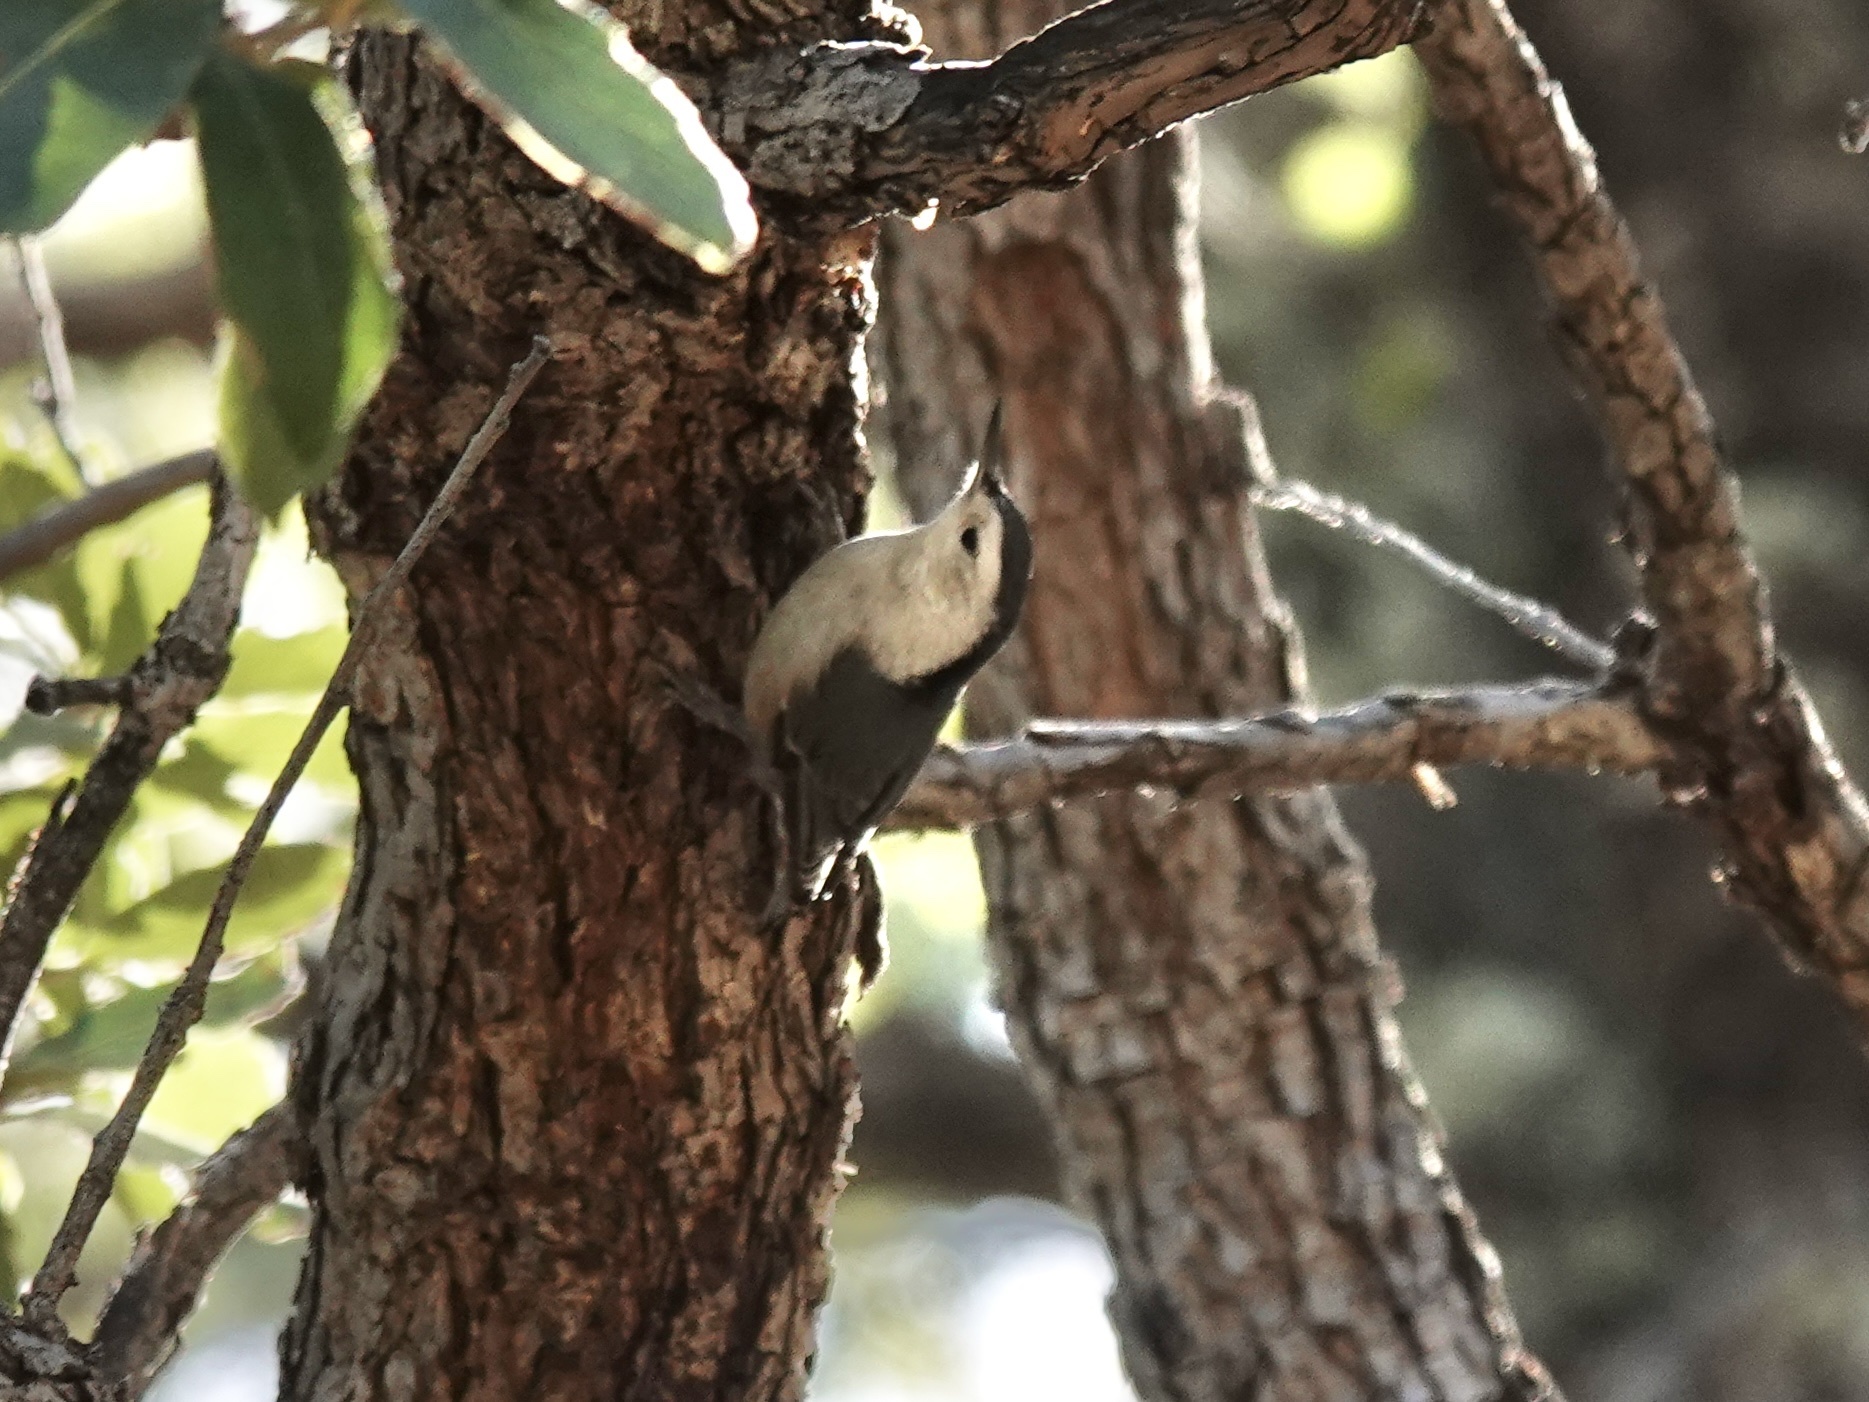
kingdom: Animalia
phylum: Chordata
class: Aves
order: Passeriformes
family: Sittidae
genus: Sitta
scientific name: Sitta carolinensis
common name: White-breasted nuthatch
